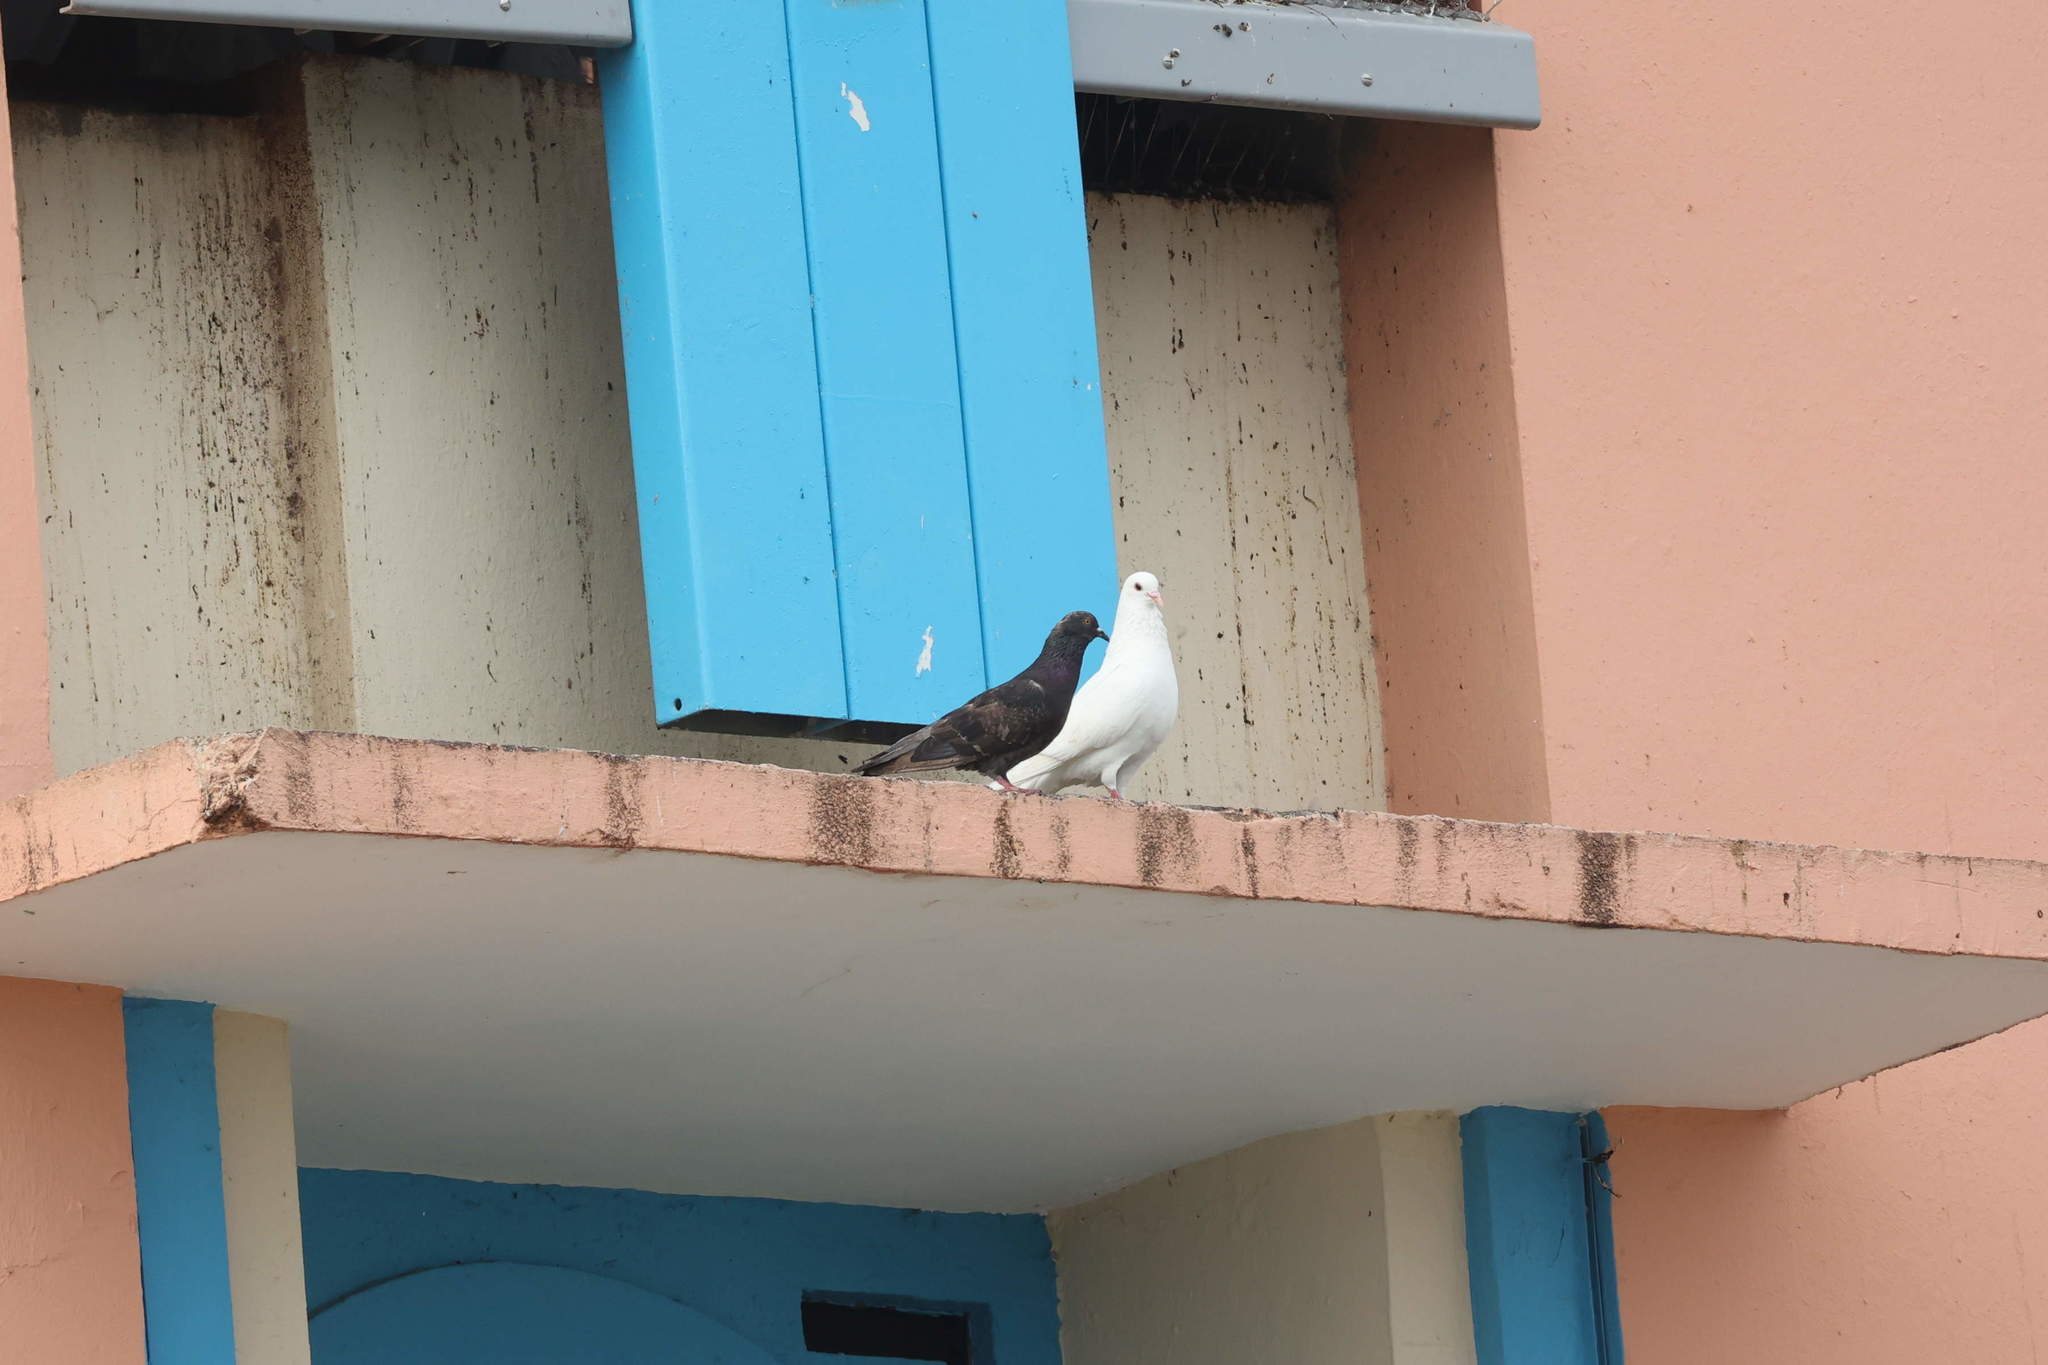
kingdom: Animalia
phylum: Chordata
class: Aves
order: Columbiformes
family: Columbidae
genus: Columba
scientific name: Columba livia
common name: Rock pigeon
